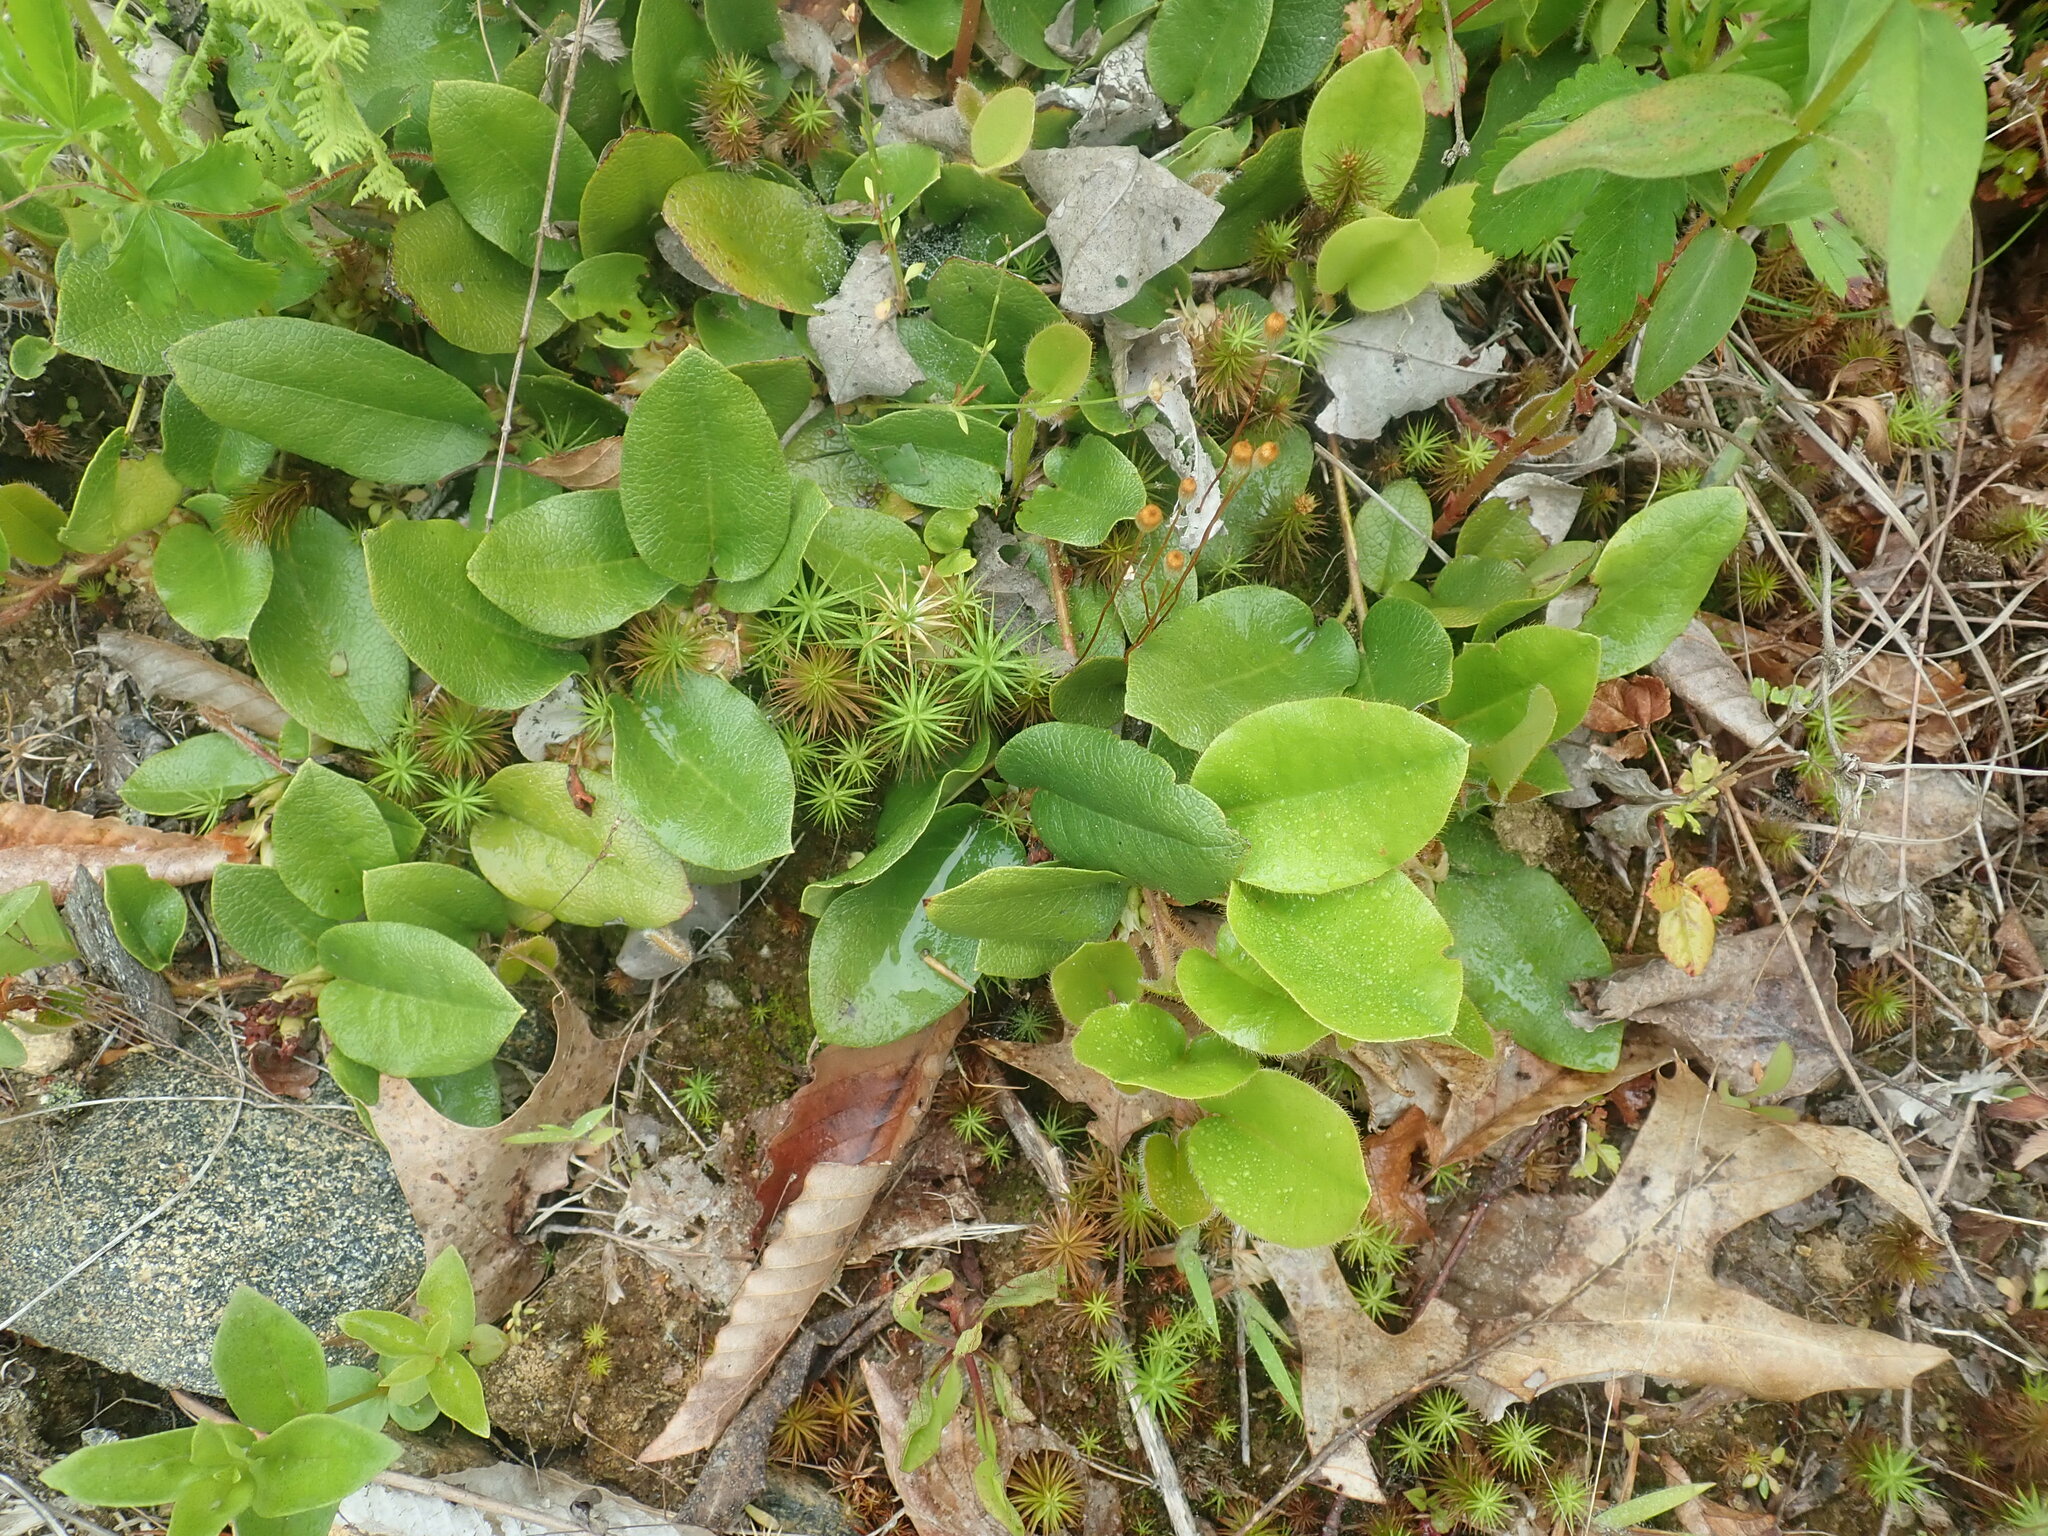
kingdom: Plantae
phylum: Tracheophyta
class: Magnoliopsida
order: Ericales
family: Ericaceae
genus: Epigaea
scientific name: Epigaea repens
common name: Gravelroot
